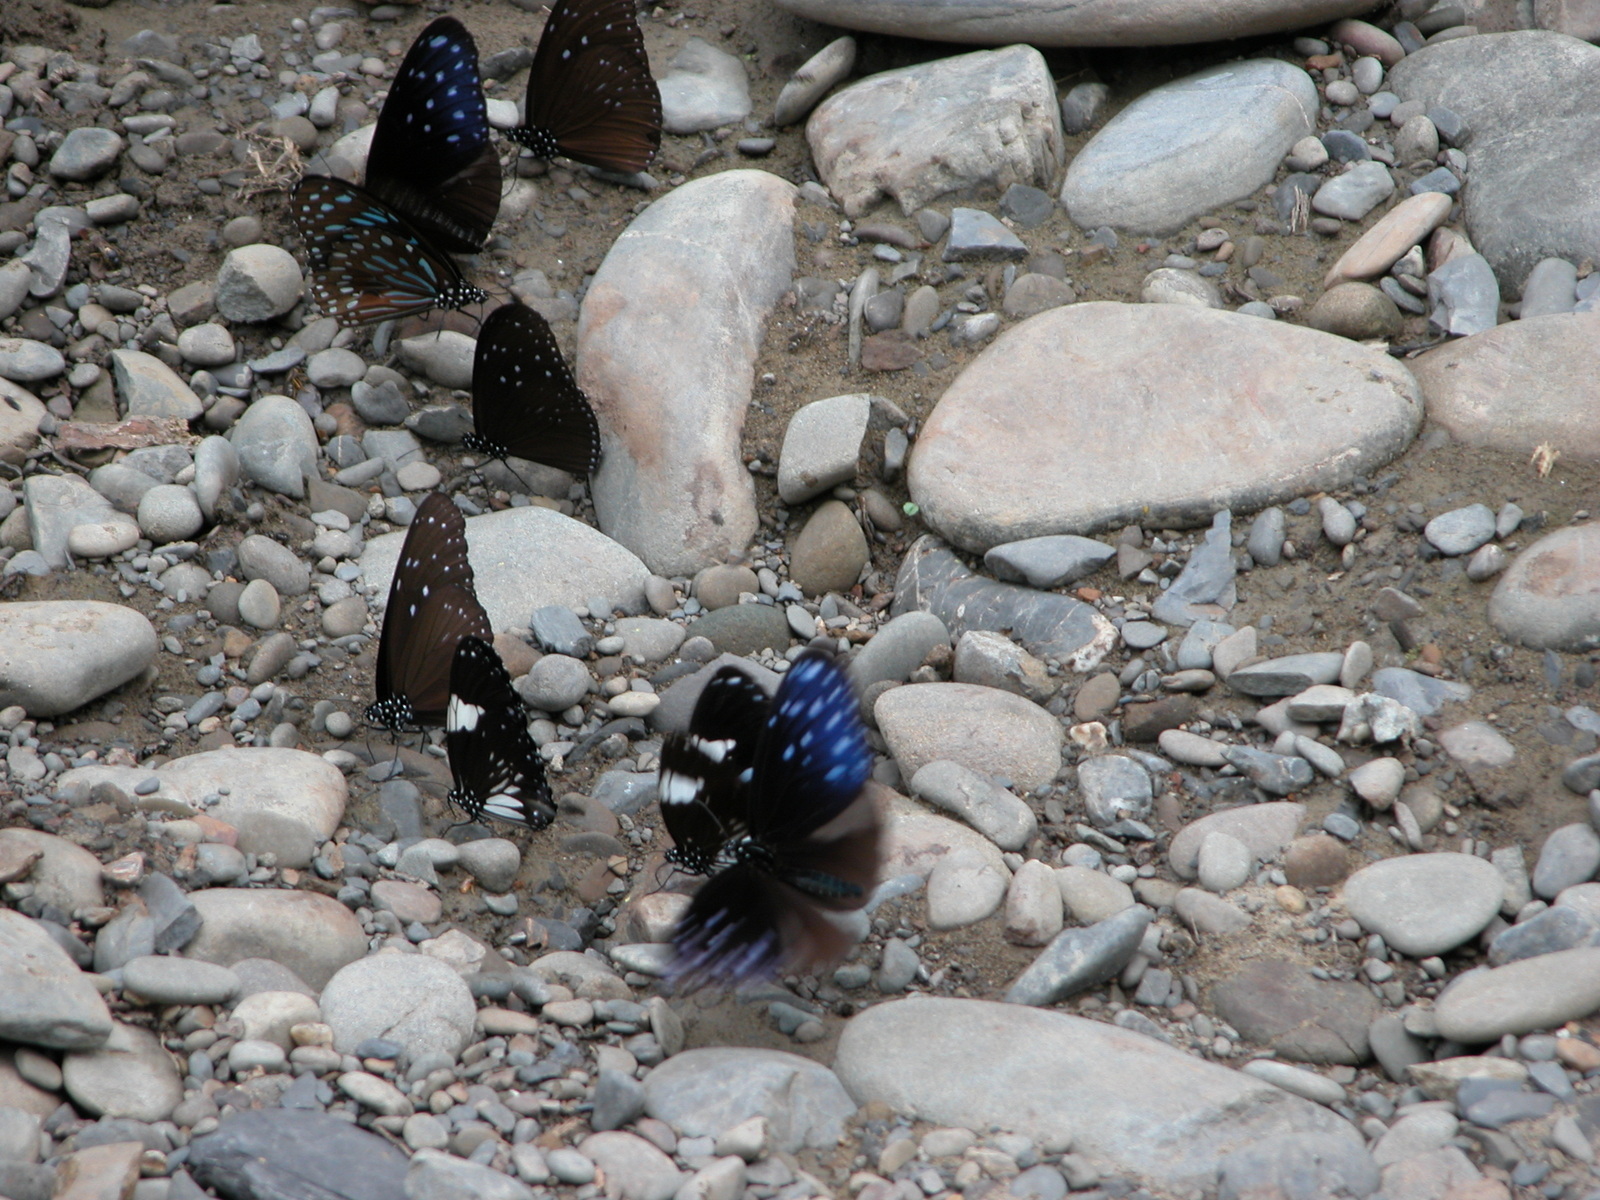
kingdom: Animalia
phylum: Arthropoda
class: Insecta
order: Lepidoptera
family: Nymphalidae
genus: Tirumala
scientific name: Tirumala septentrionis
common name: Dark blue tiger butterfly
